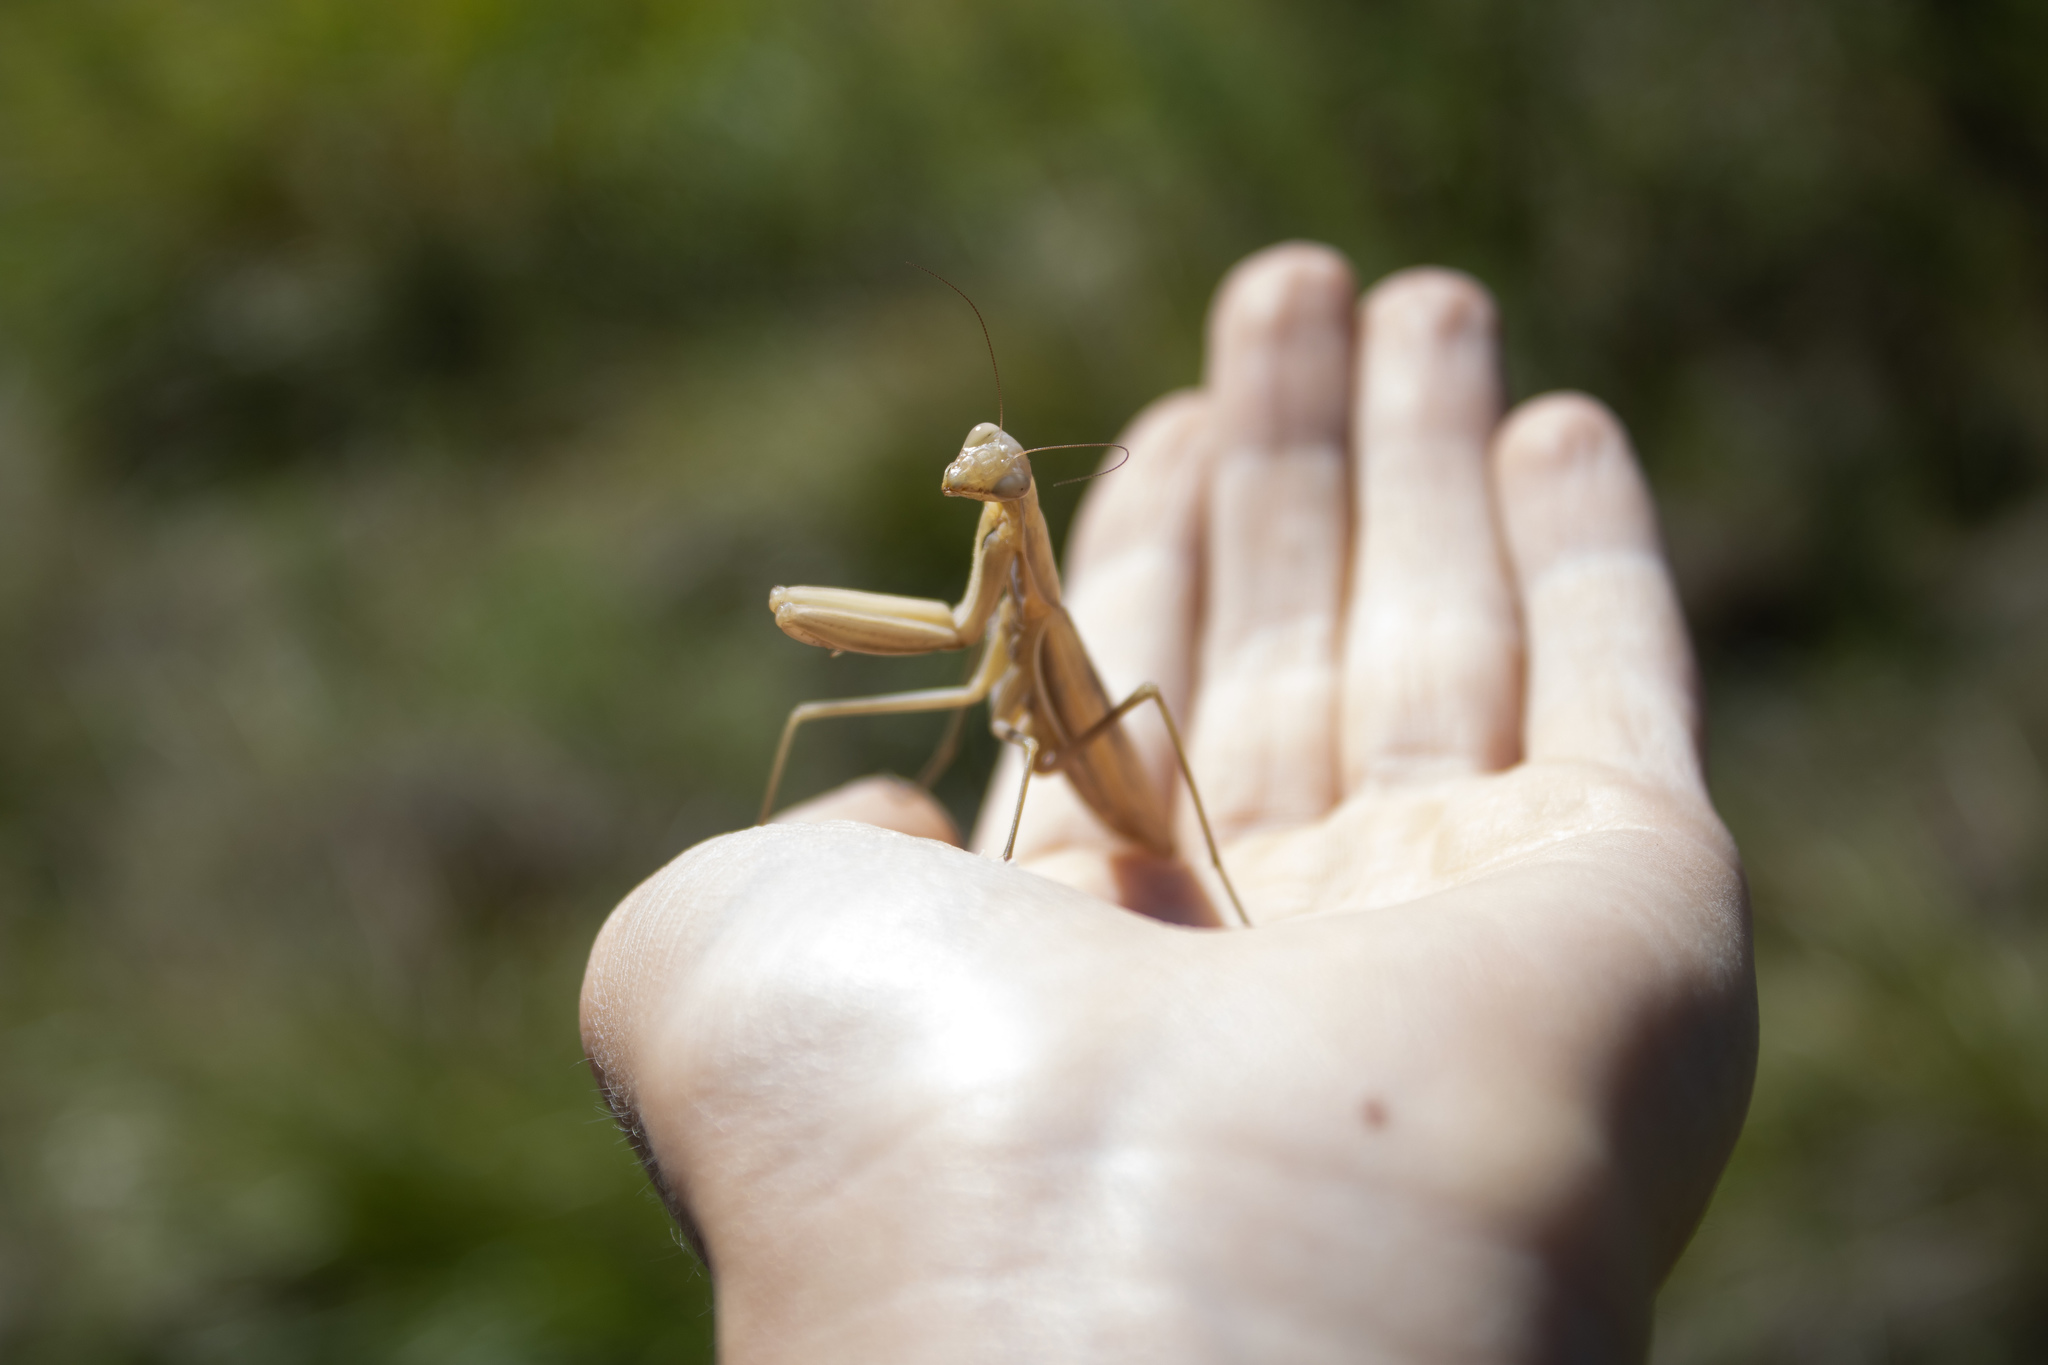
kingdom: Animalia
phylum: Arthropoda
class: Insecta
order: Mantodea
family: Mantidae
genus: Mantis
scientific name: Mantis religiosa
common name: Praying mantis
